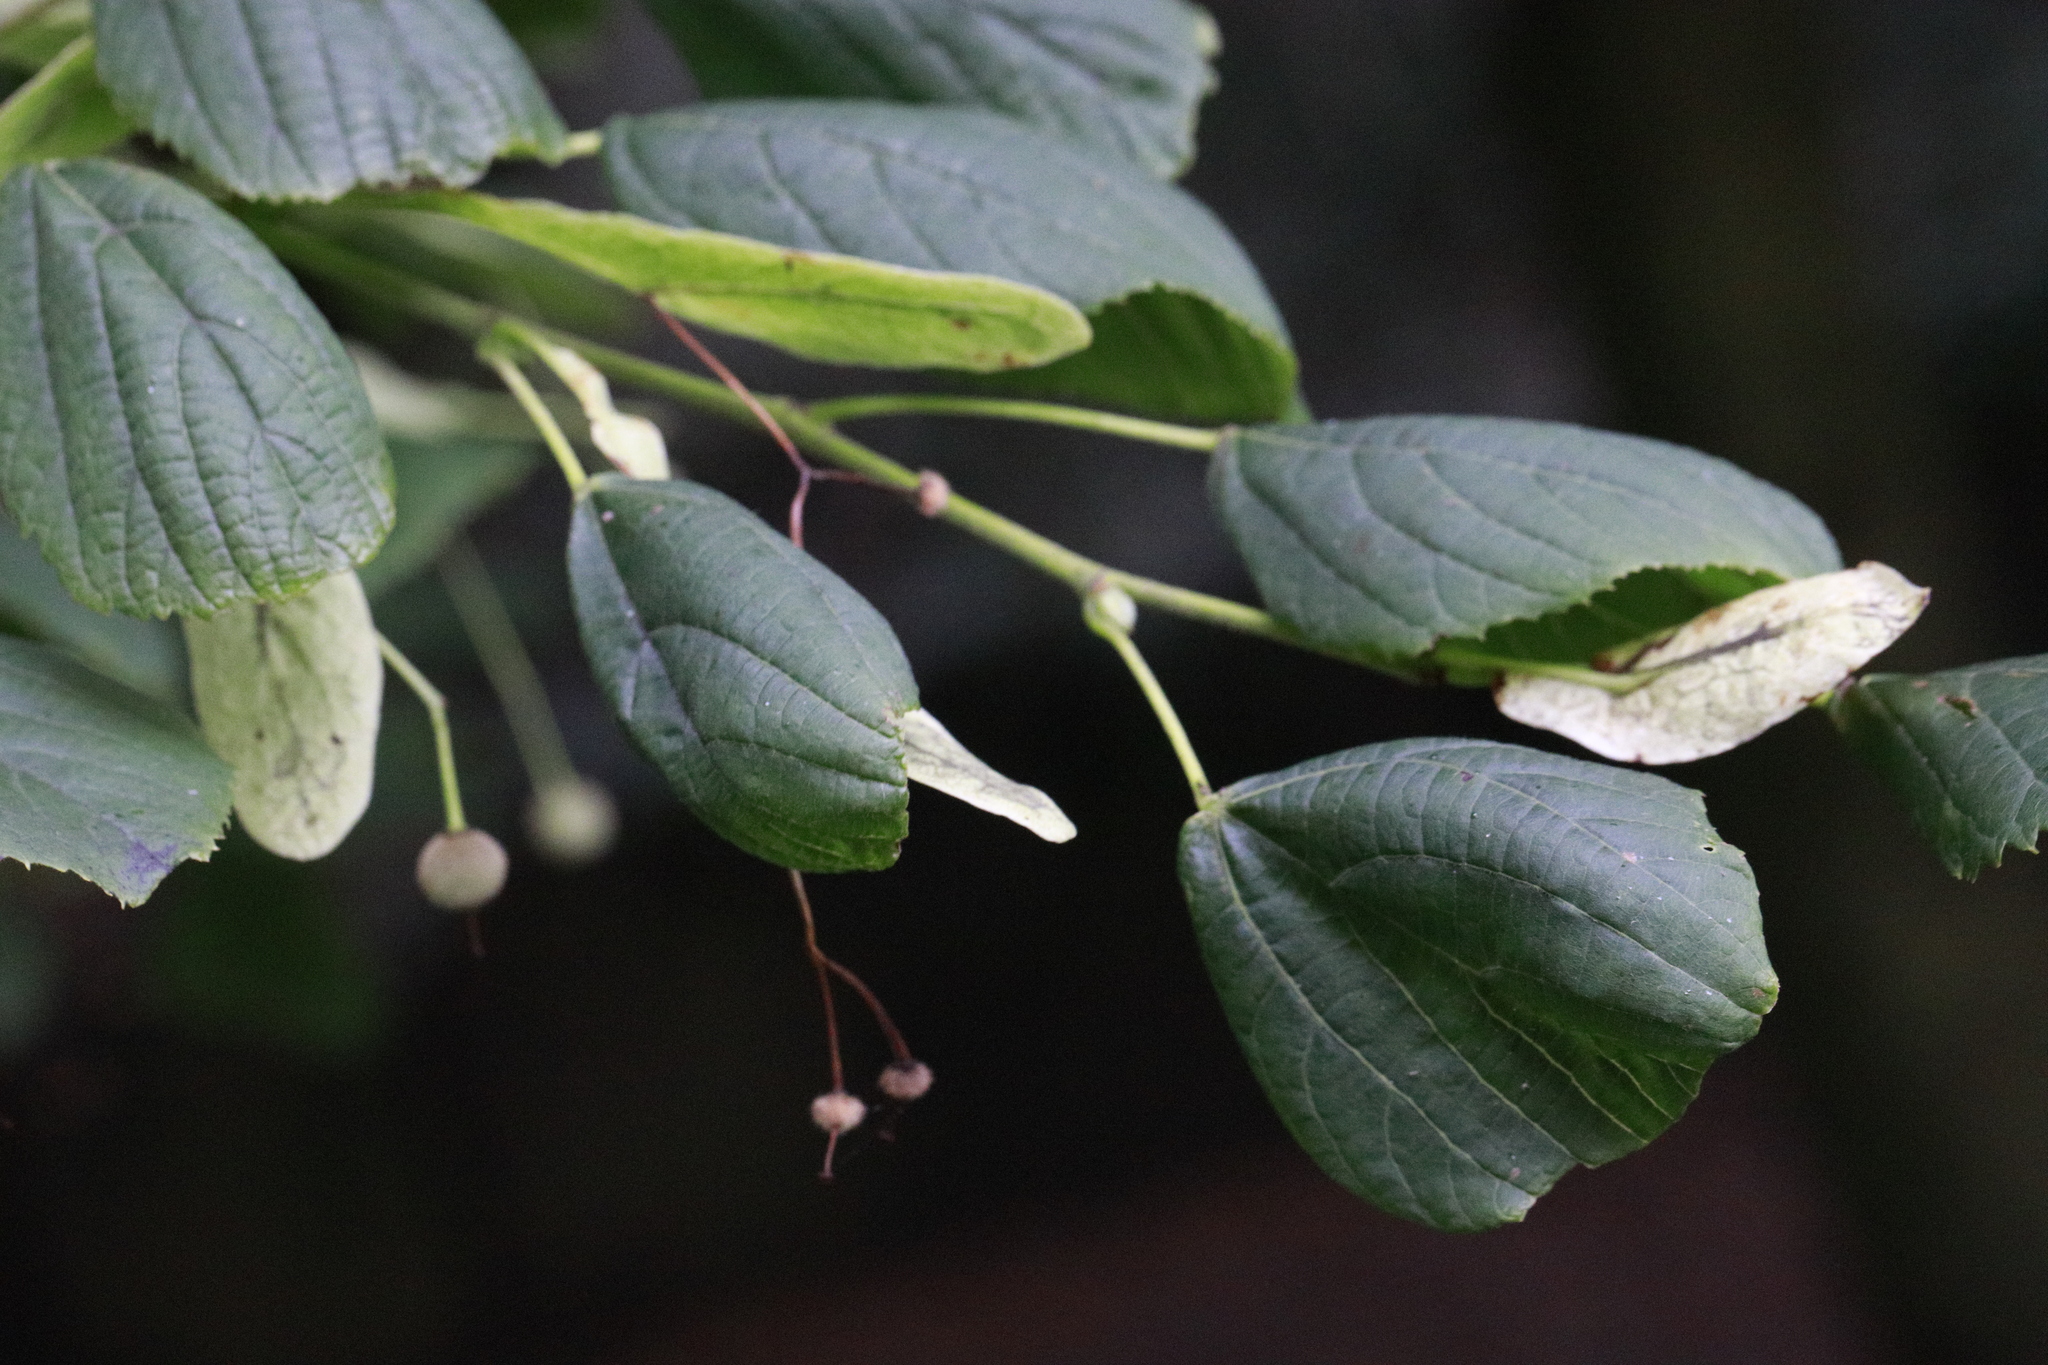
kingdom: Plantae
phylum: Tracheophyta
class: Magnoliopsida
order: Malvales
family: Malvaceae
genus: Tilia
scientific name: Tilia europaea
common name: European linden
